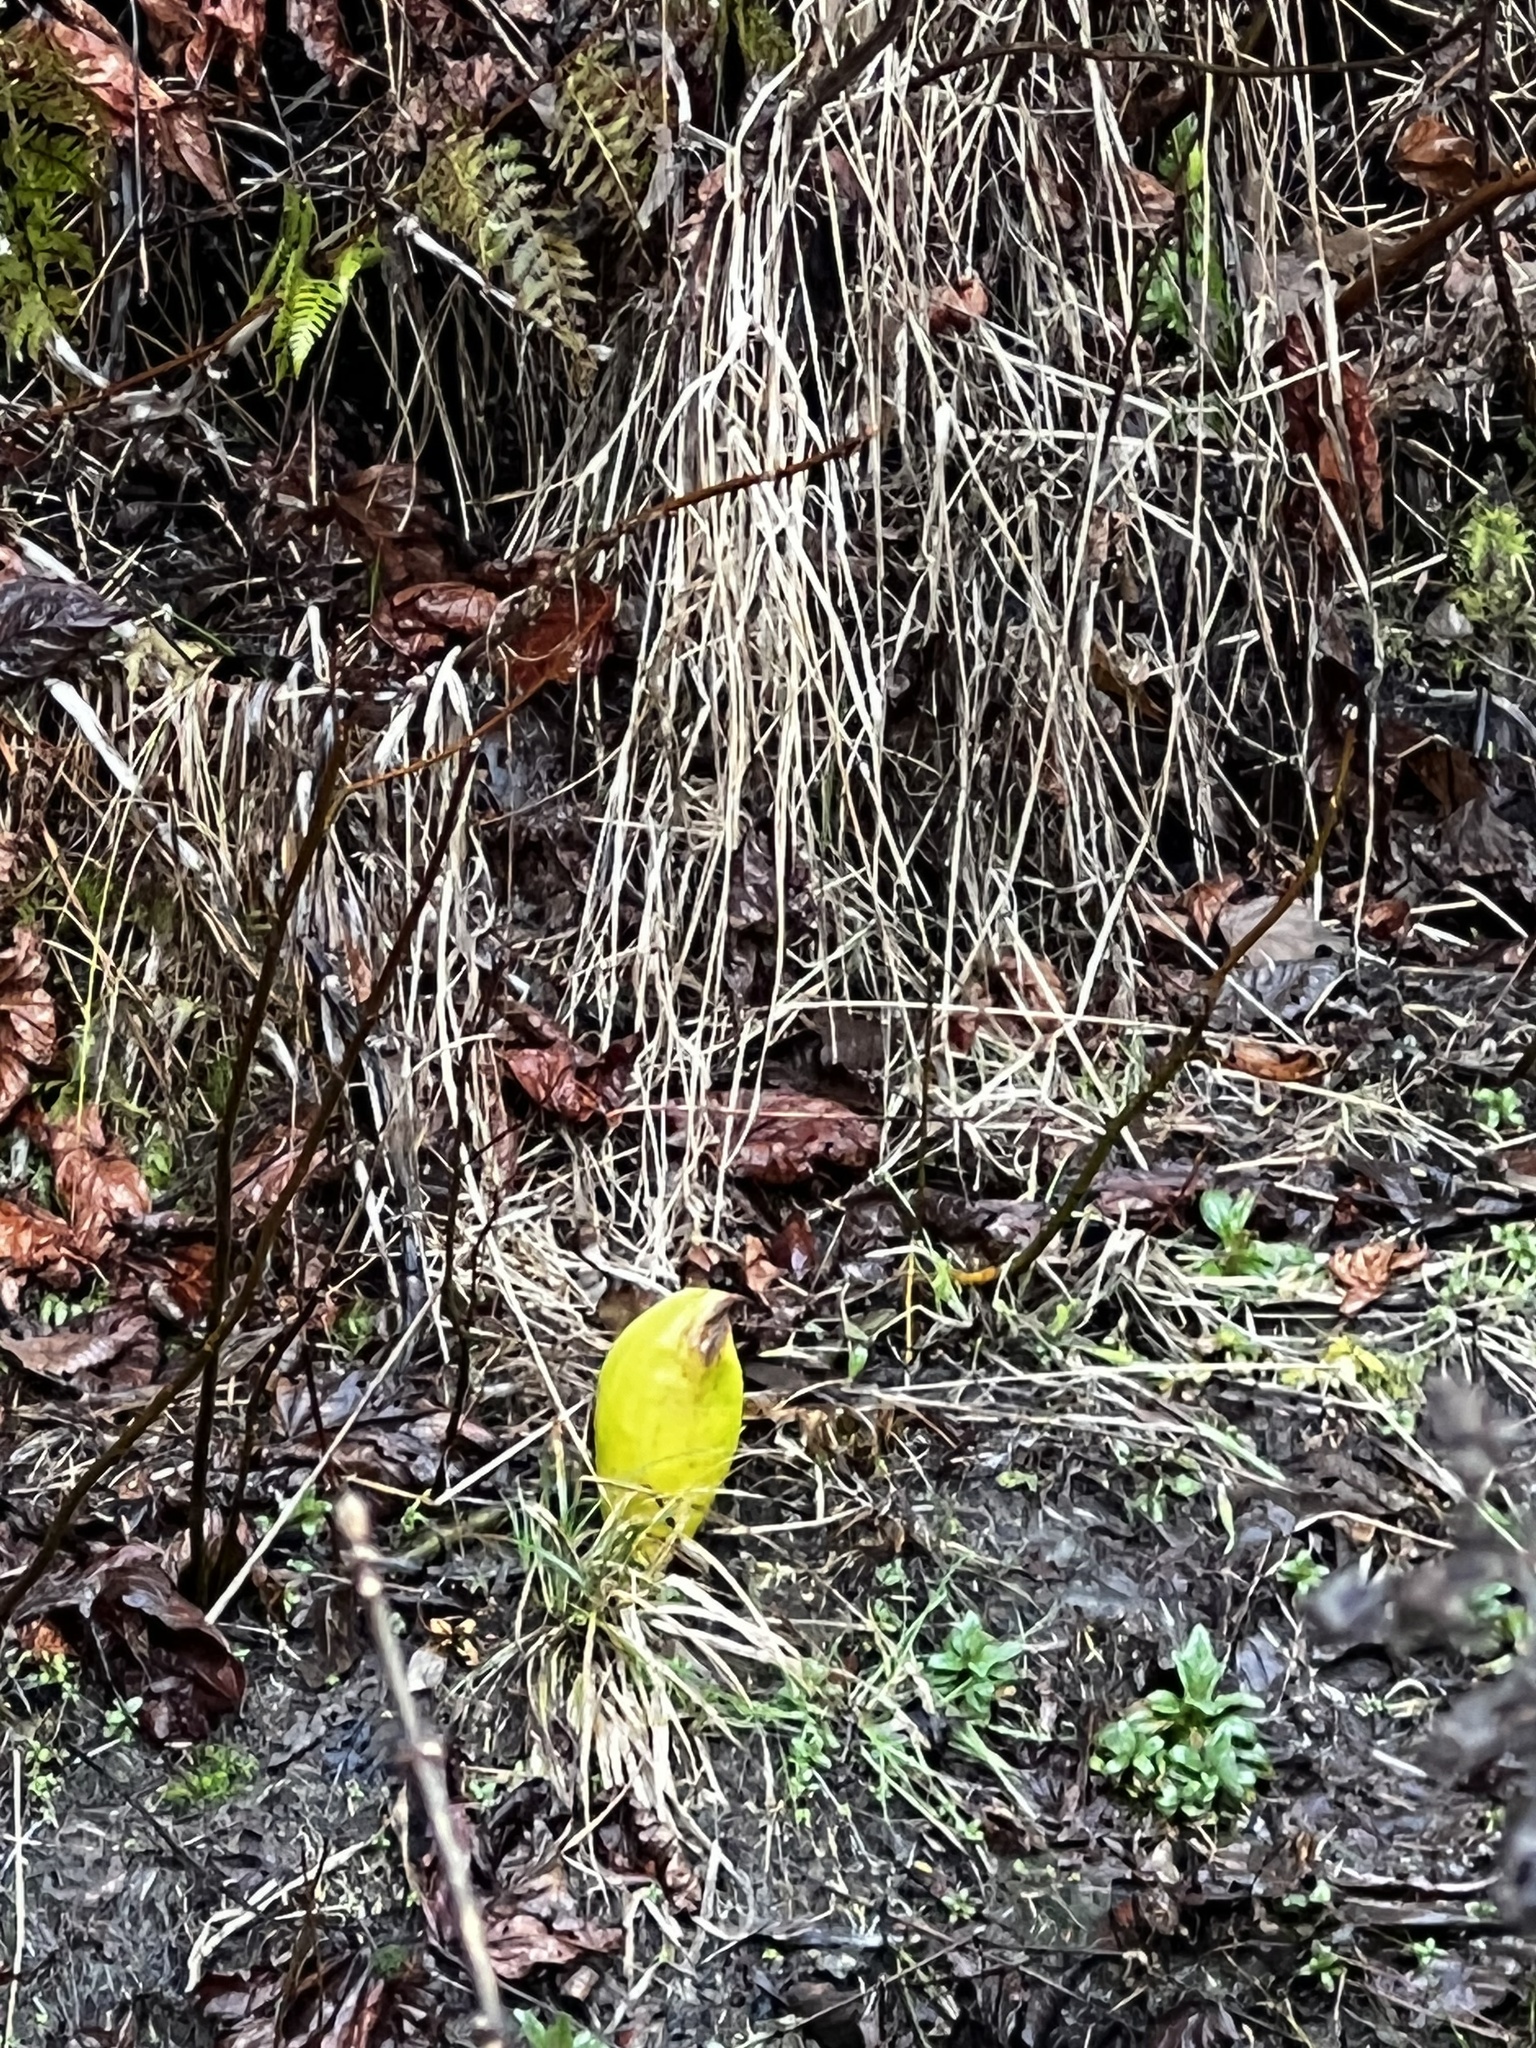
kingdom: Plantae
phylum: Tracheophyta
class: Liliopsida
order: Alismatales
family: Araceae
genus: Lysichiton
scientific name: Lysichiton americanus
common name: American skunk cabbage
